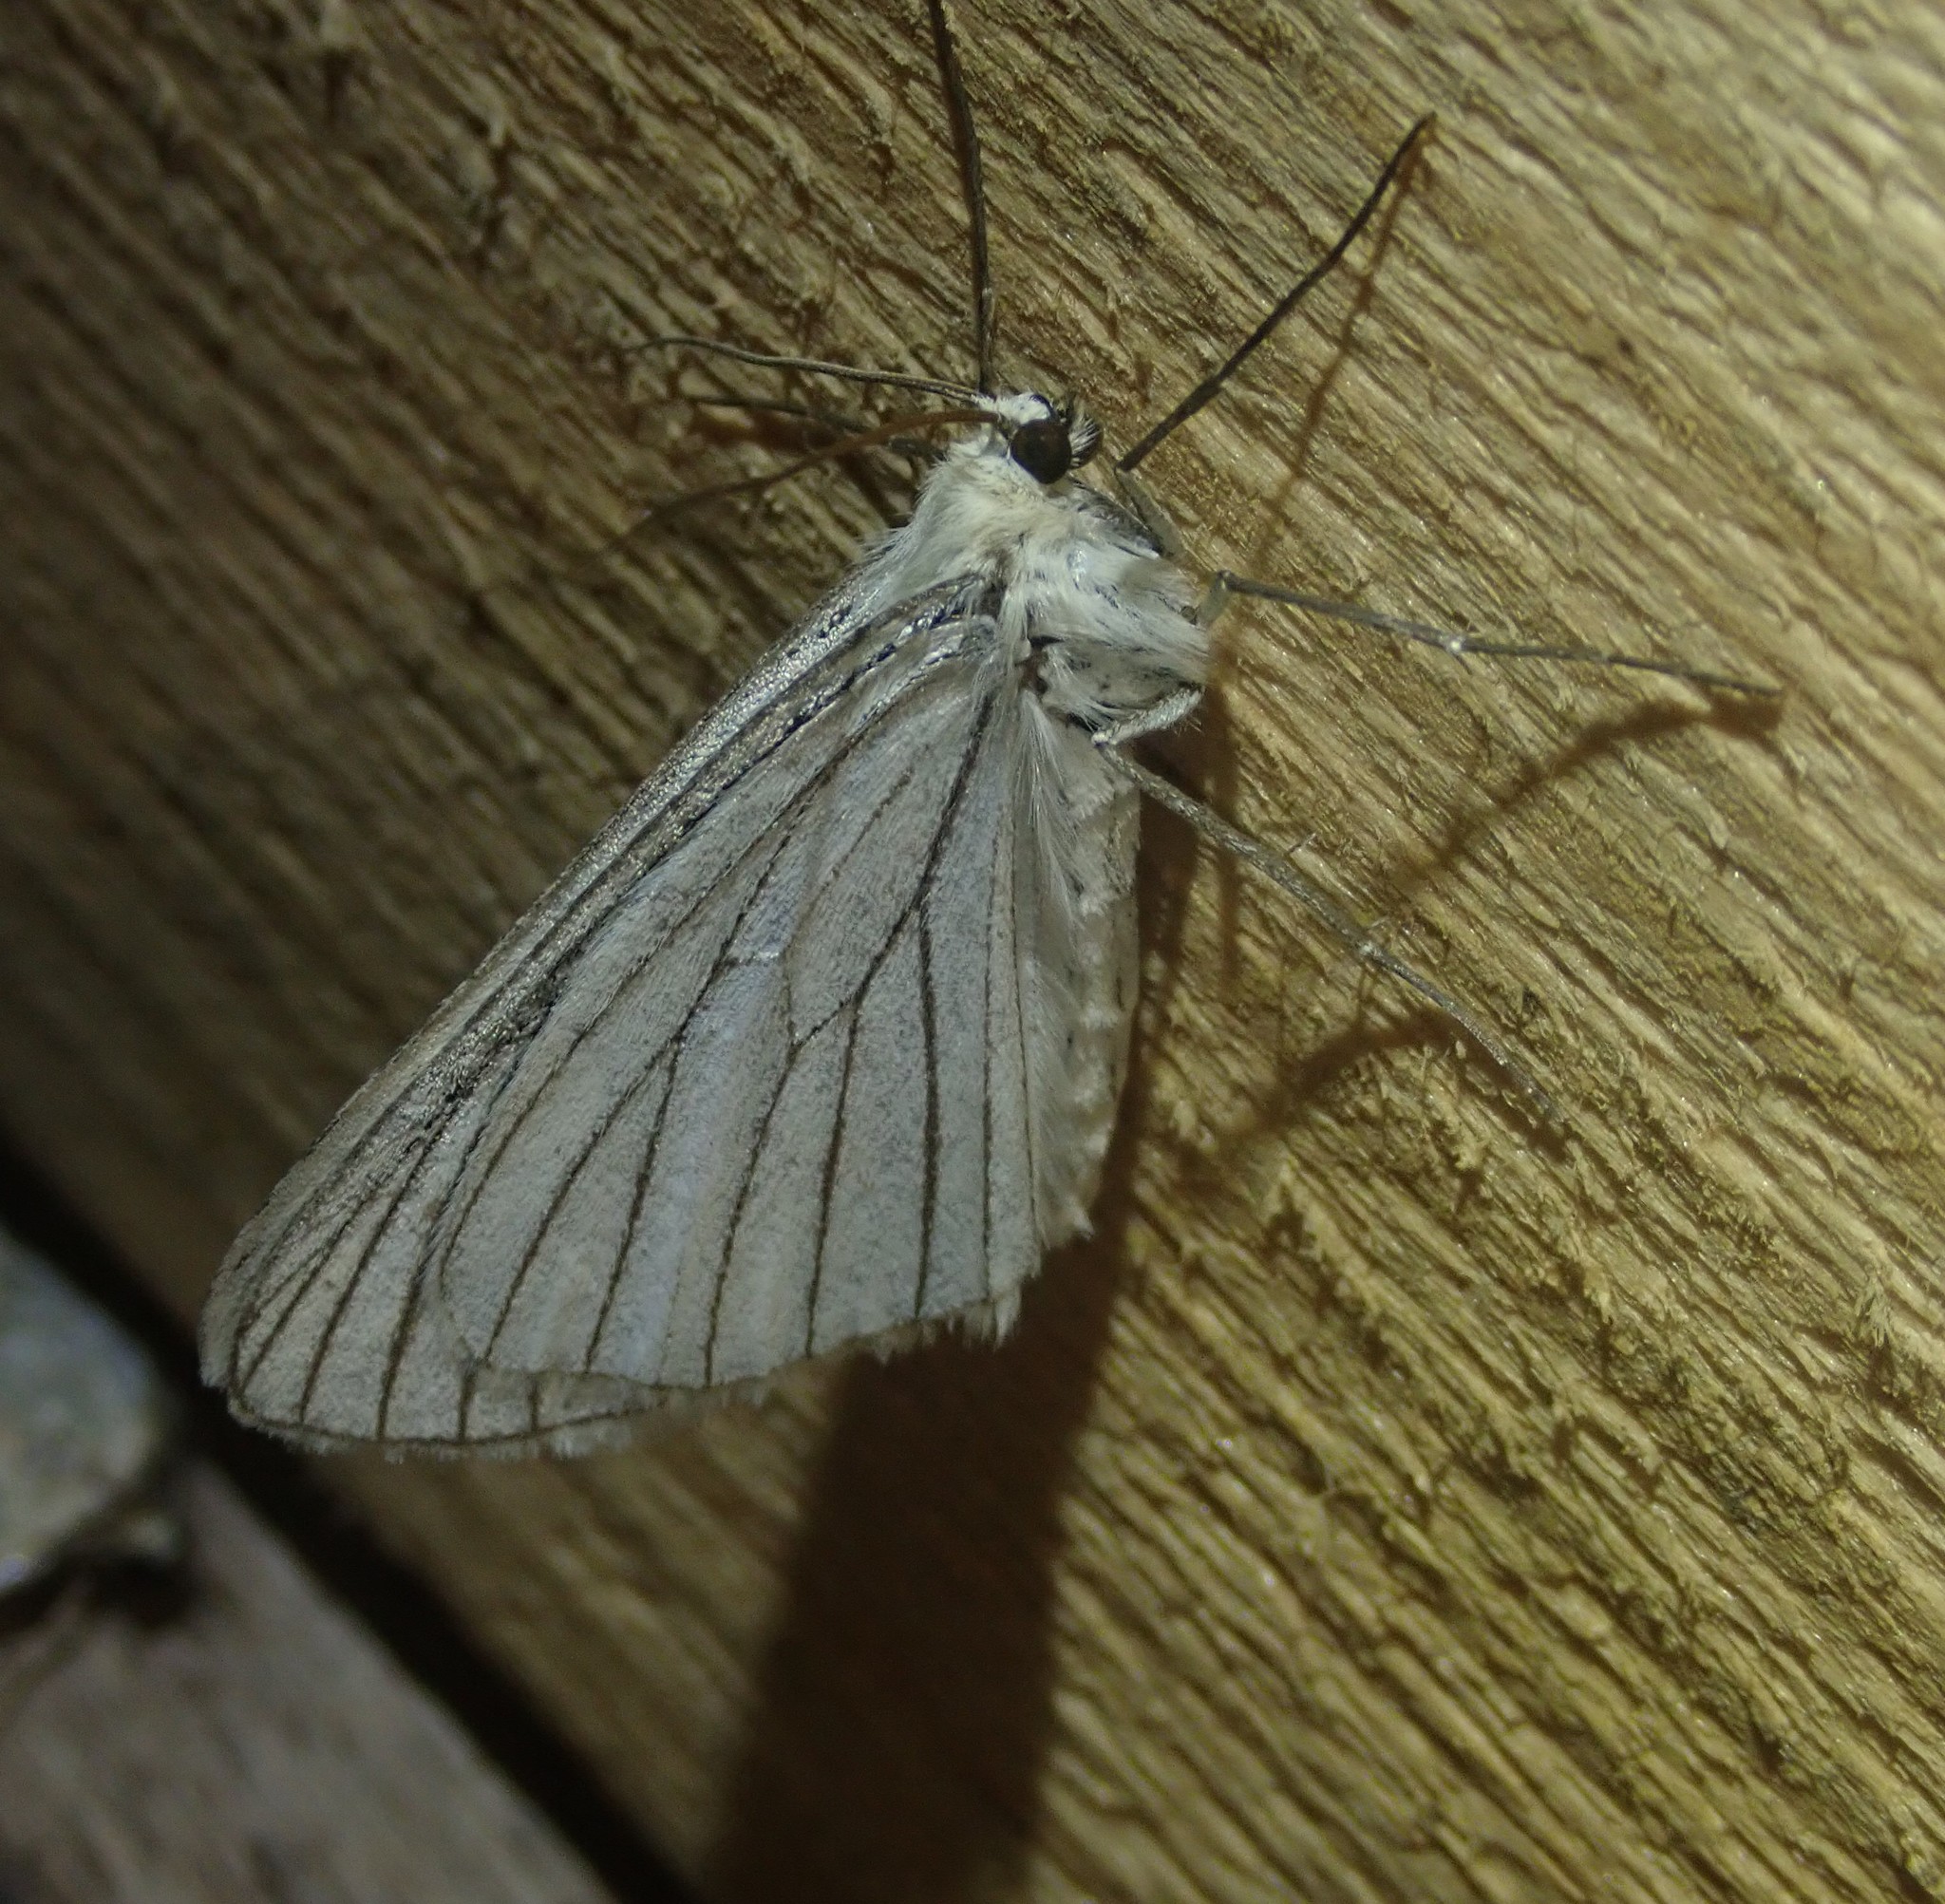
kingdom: Animalia
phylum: Arthropoda
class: Insecta
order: Lepidoptera
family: Geometridae
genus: Siona
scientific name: Siona lineata
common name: Black-veined moth
